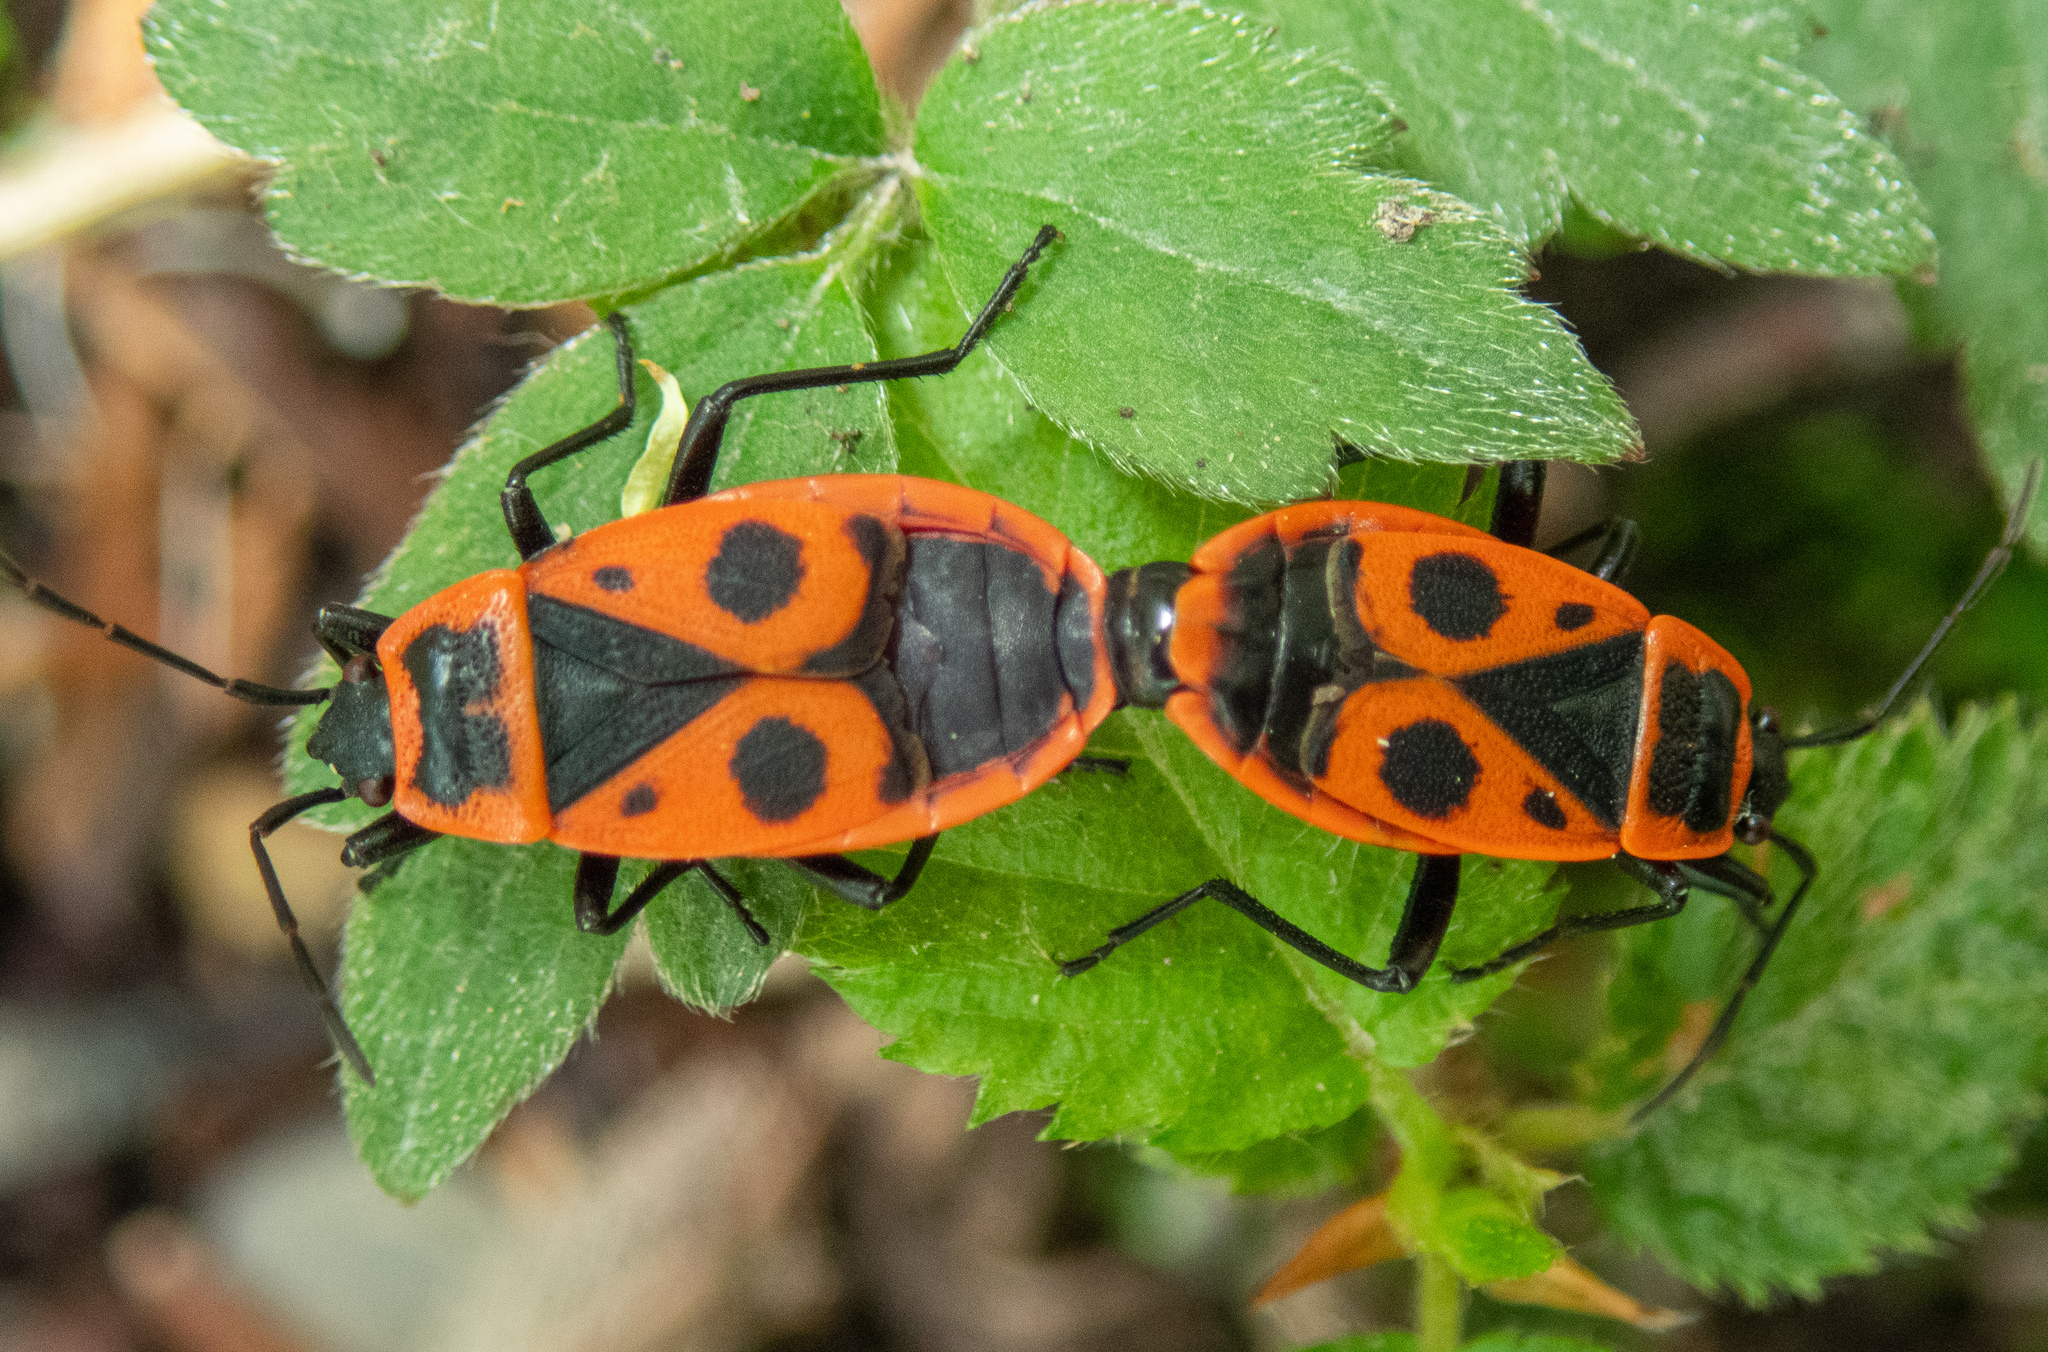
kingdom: Animalia
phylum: Arthropoda
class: Insecta
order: Hemiptera
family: Pyrrhocoridae
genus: Pyrrhocoris
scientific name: Pyrrhocoris apterus
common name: Firebug
